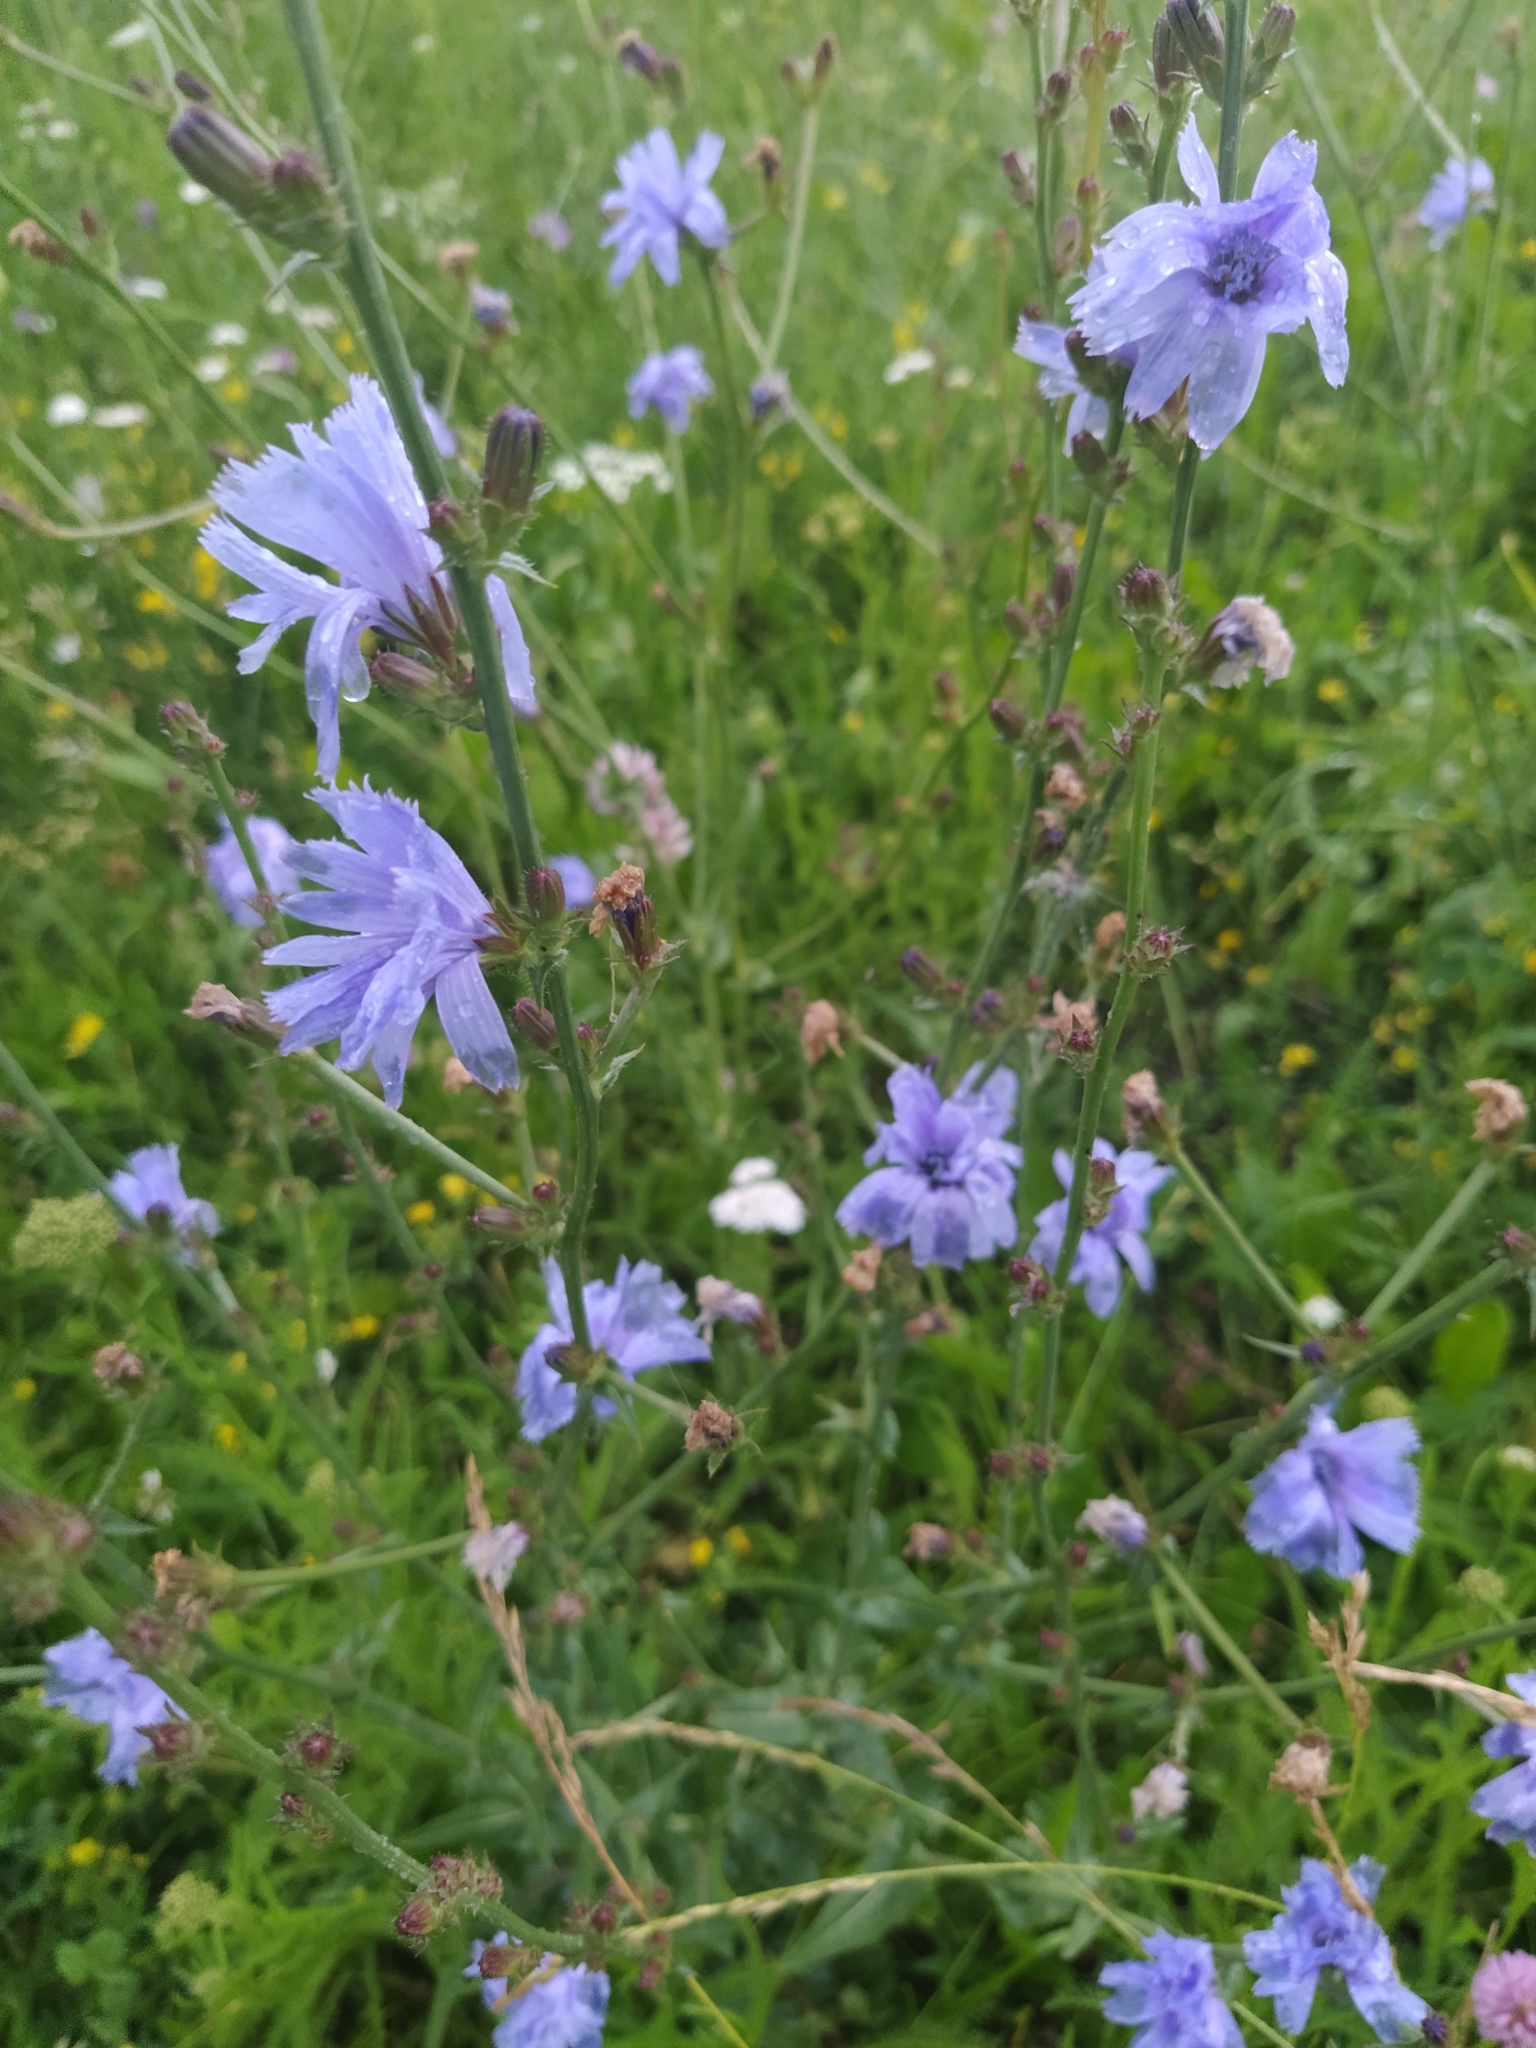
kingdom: Plantae
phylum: Tracheophyta
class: Magnoliopsida
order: Asterales
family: Asteraceae
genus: Cichorium
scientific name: Cichorium intybus
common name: Chicory
